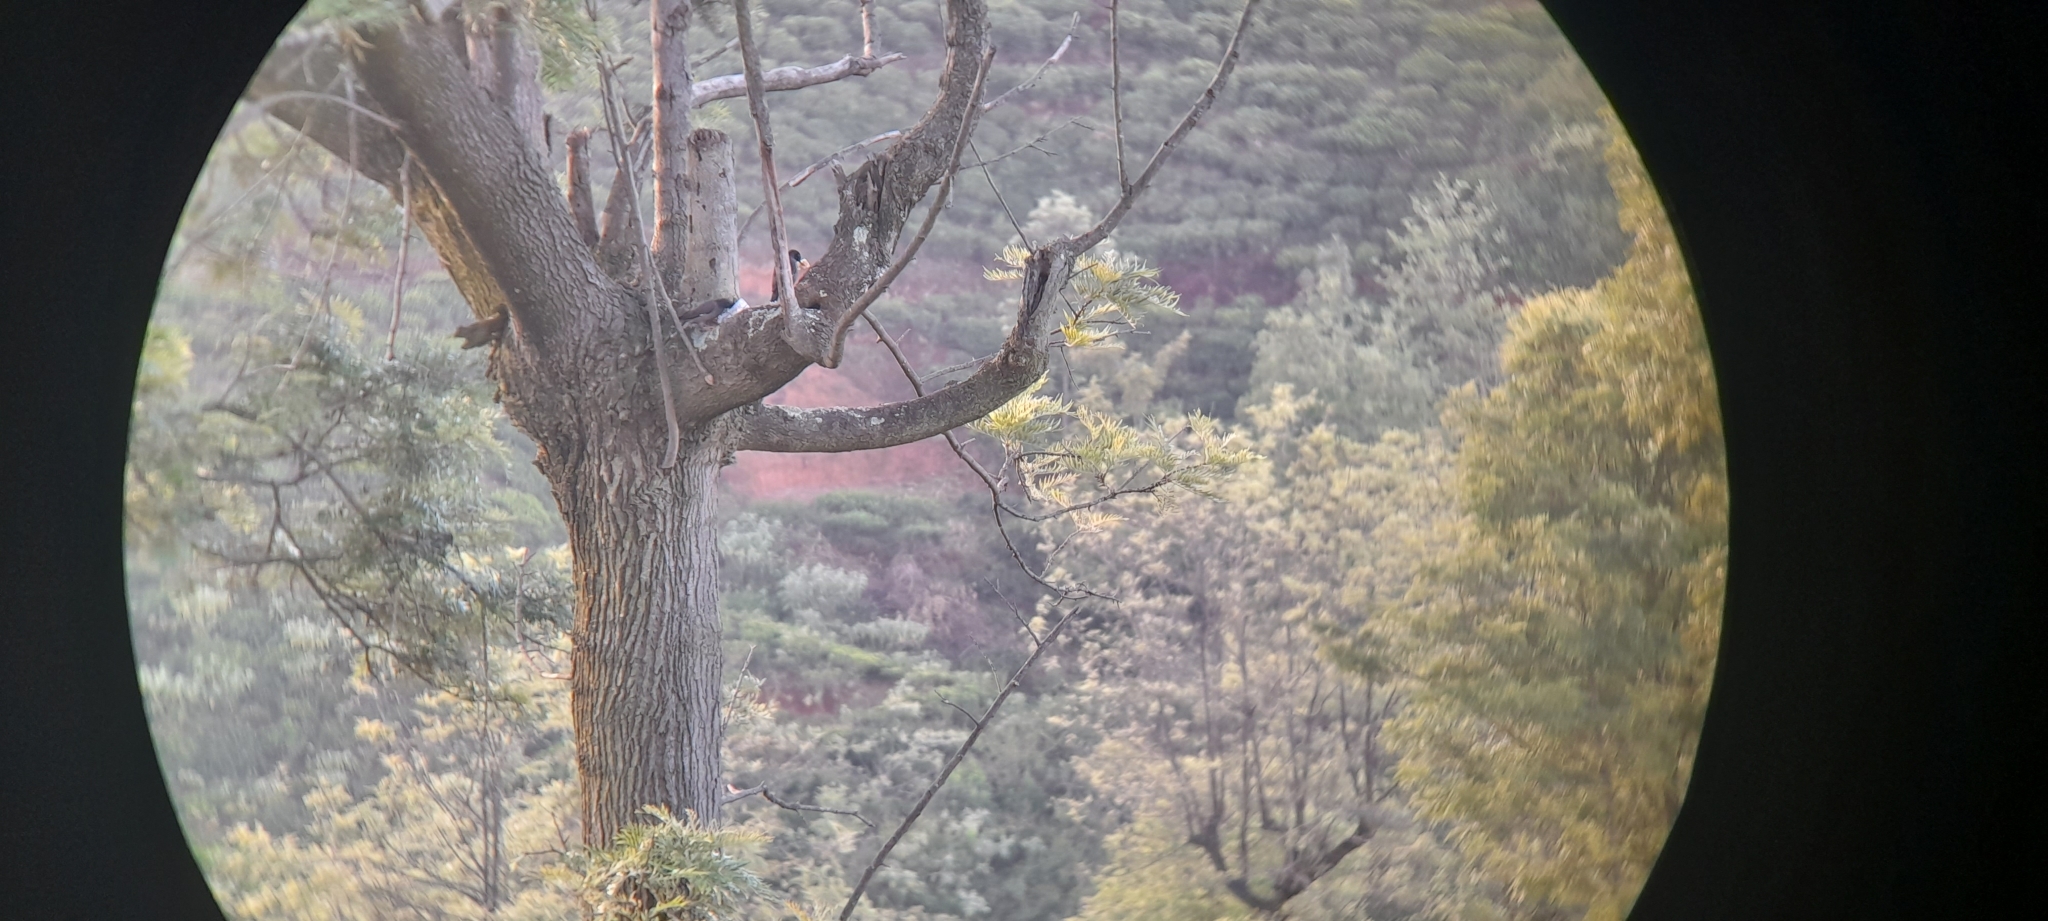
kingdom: Animalia
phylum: Chordata
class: Aves
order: Passeriformes
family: Sturnidae
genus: Acridotheres
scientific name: Acridotheres fuscus
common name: Jungle myna
